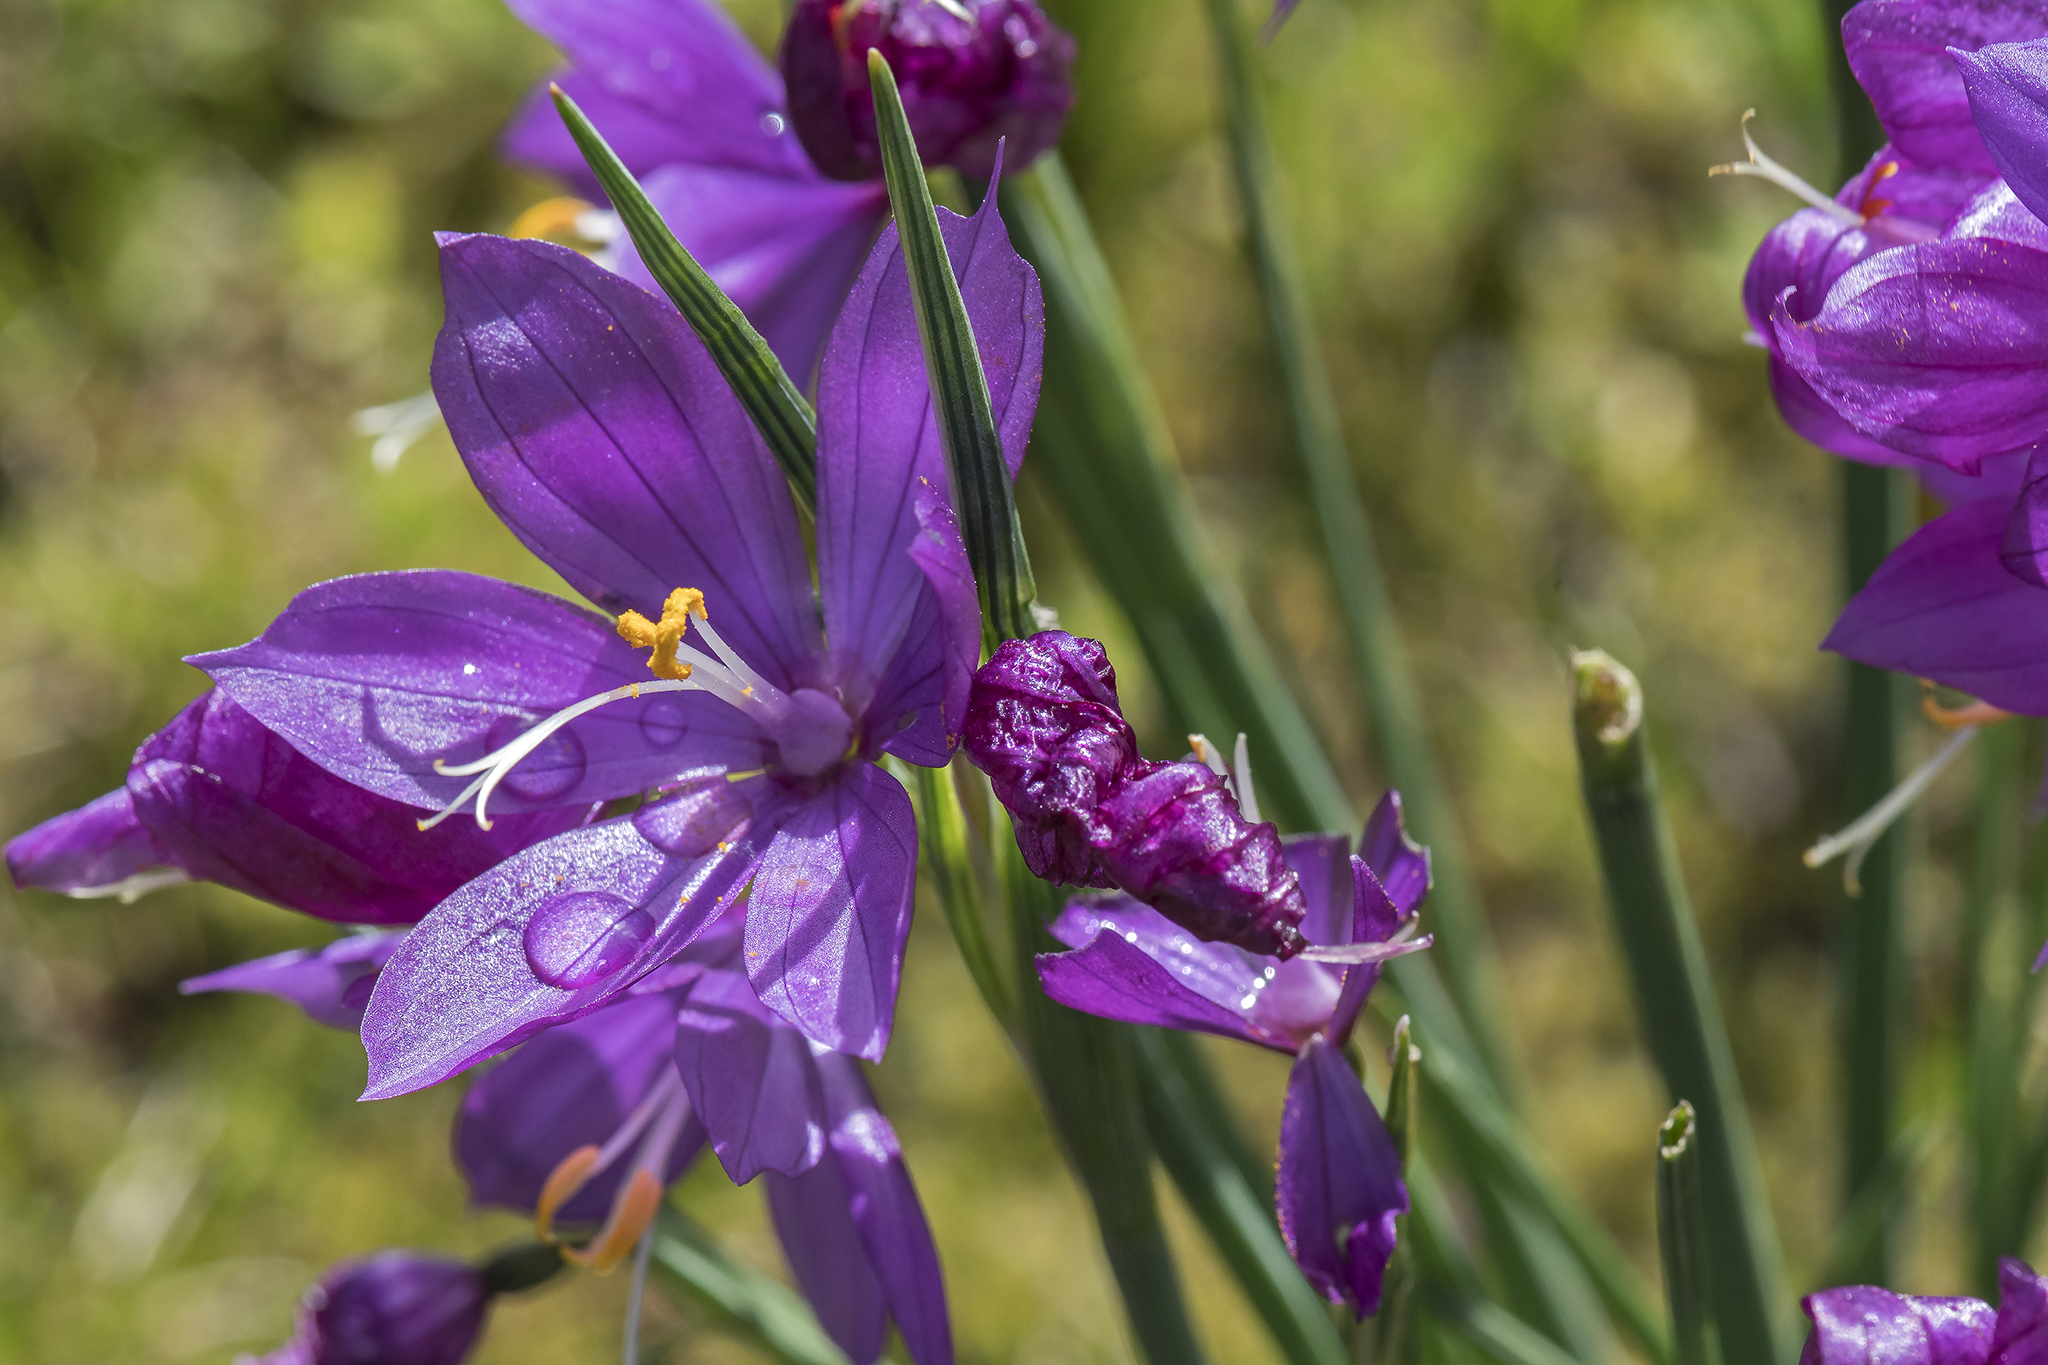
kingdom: Plantae
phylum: Tracheophyta
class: Liliopsida
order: Asparagales
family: Iridaceae
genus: Olsynium
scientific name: Olsynium douglasii
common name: Douglas' grasswidow
